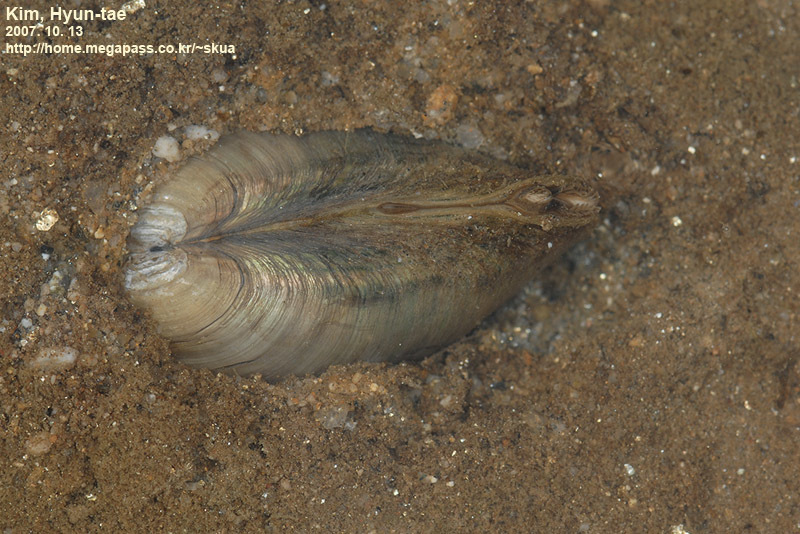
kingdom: Animalia
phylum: Mollusca
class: Bivalvia
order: Unionida
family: Unionidae
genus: Buldowskia
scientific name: Buldowskia shadini
